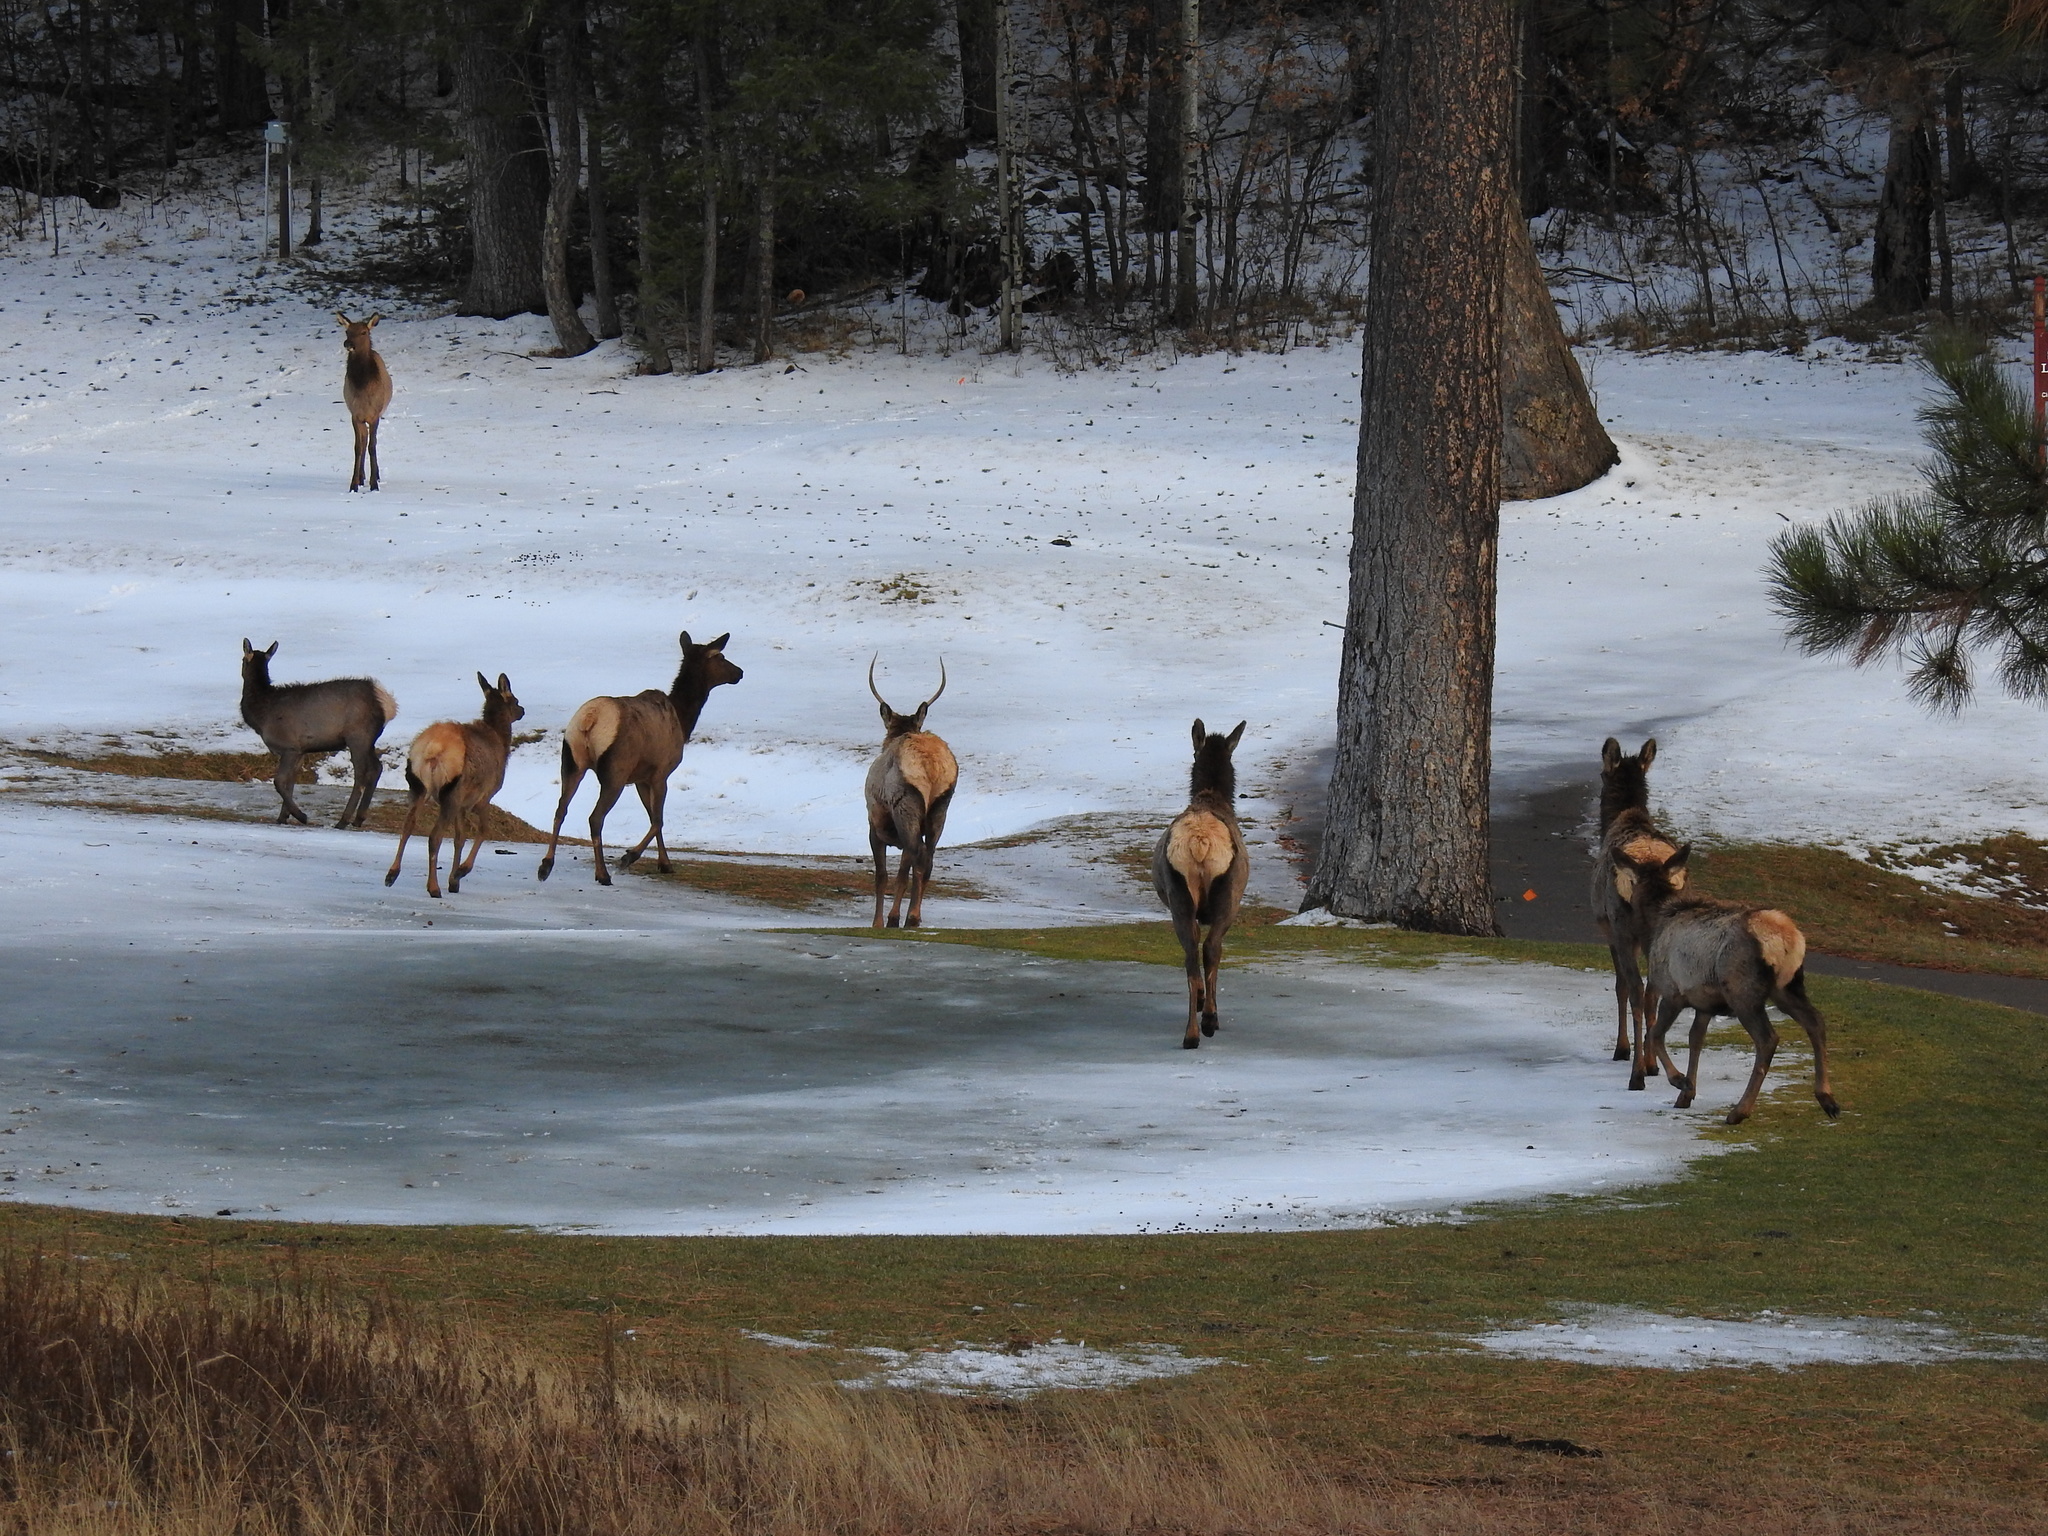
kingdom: Animalia
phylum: Chordata
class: Mammalia
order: Artiodactyla
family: Cervidae
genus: Cervus
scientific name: Cervus elaphus
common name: Red deer
